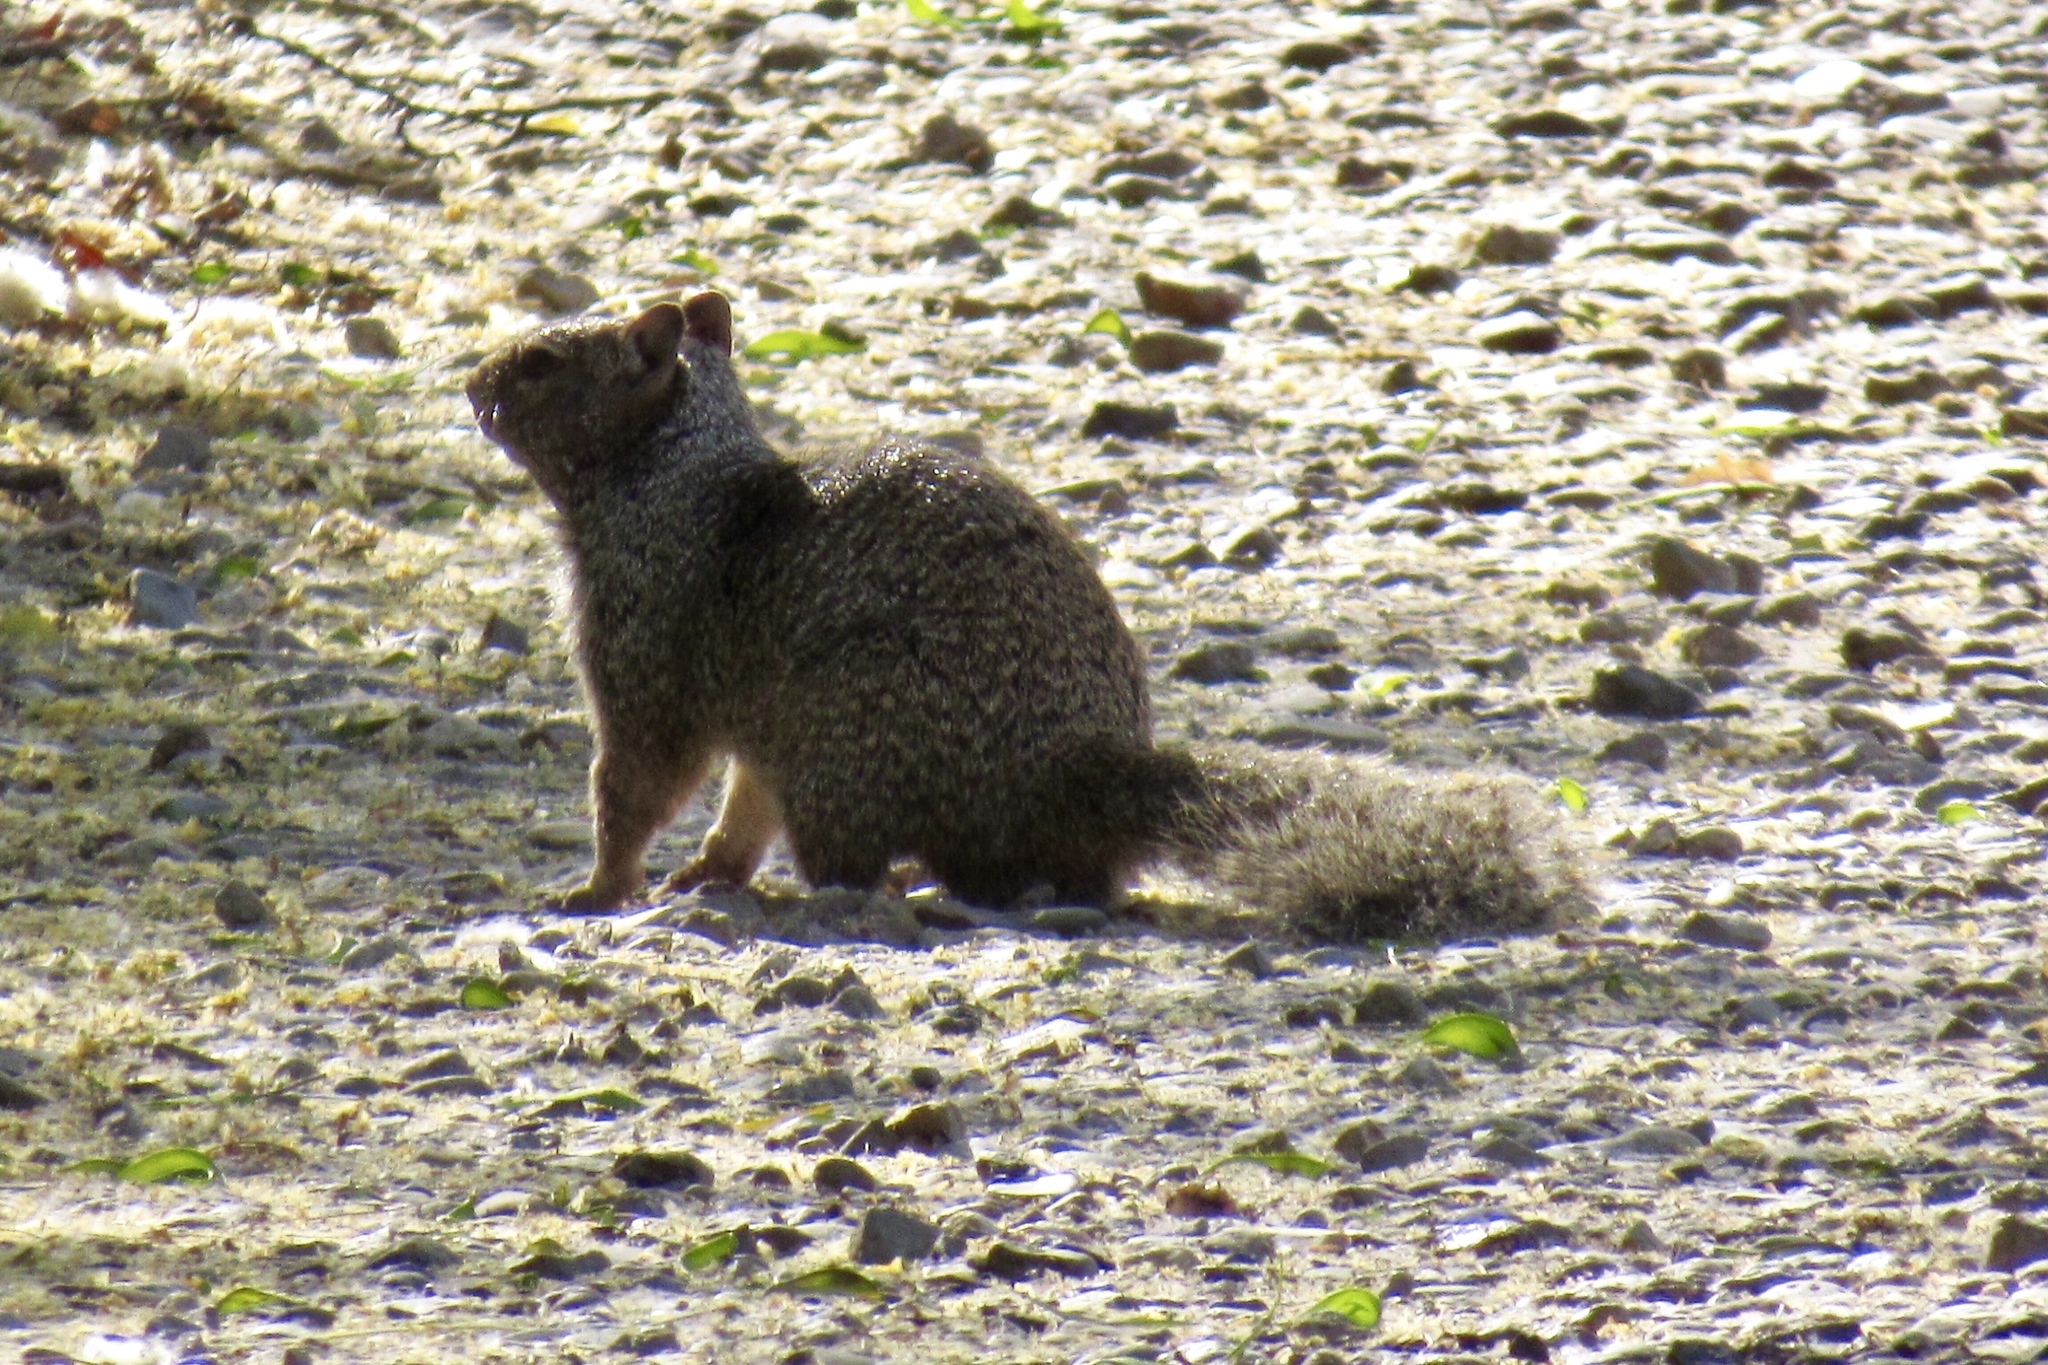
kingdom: Animalia
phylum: Chordata
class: Mammalia
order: Rodentia
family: Sciuridae
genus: Otospermophilus
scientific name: Otospermophilus variegatus
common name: Rock squirrel
